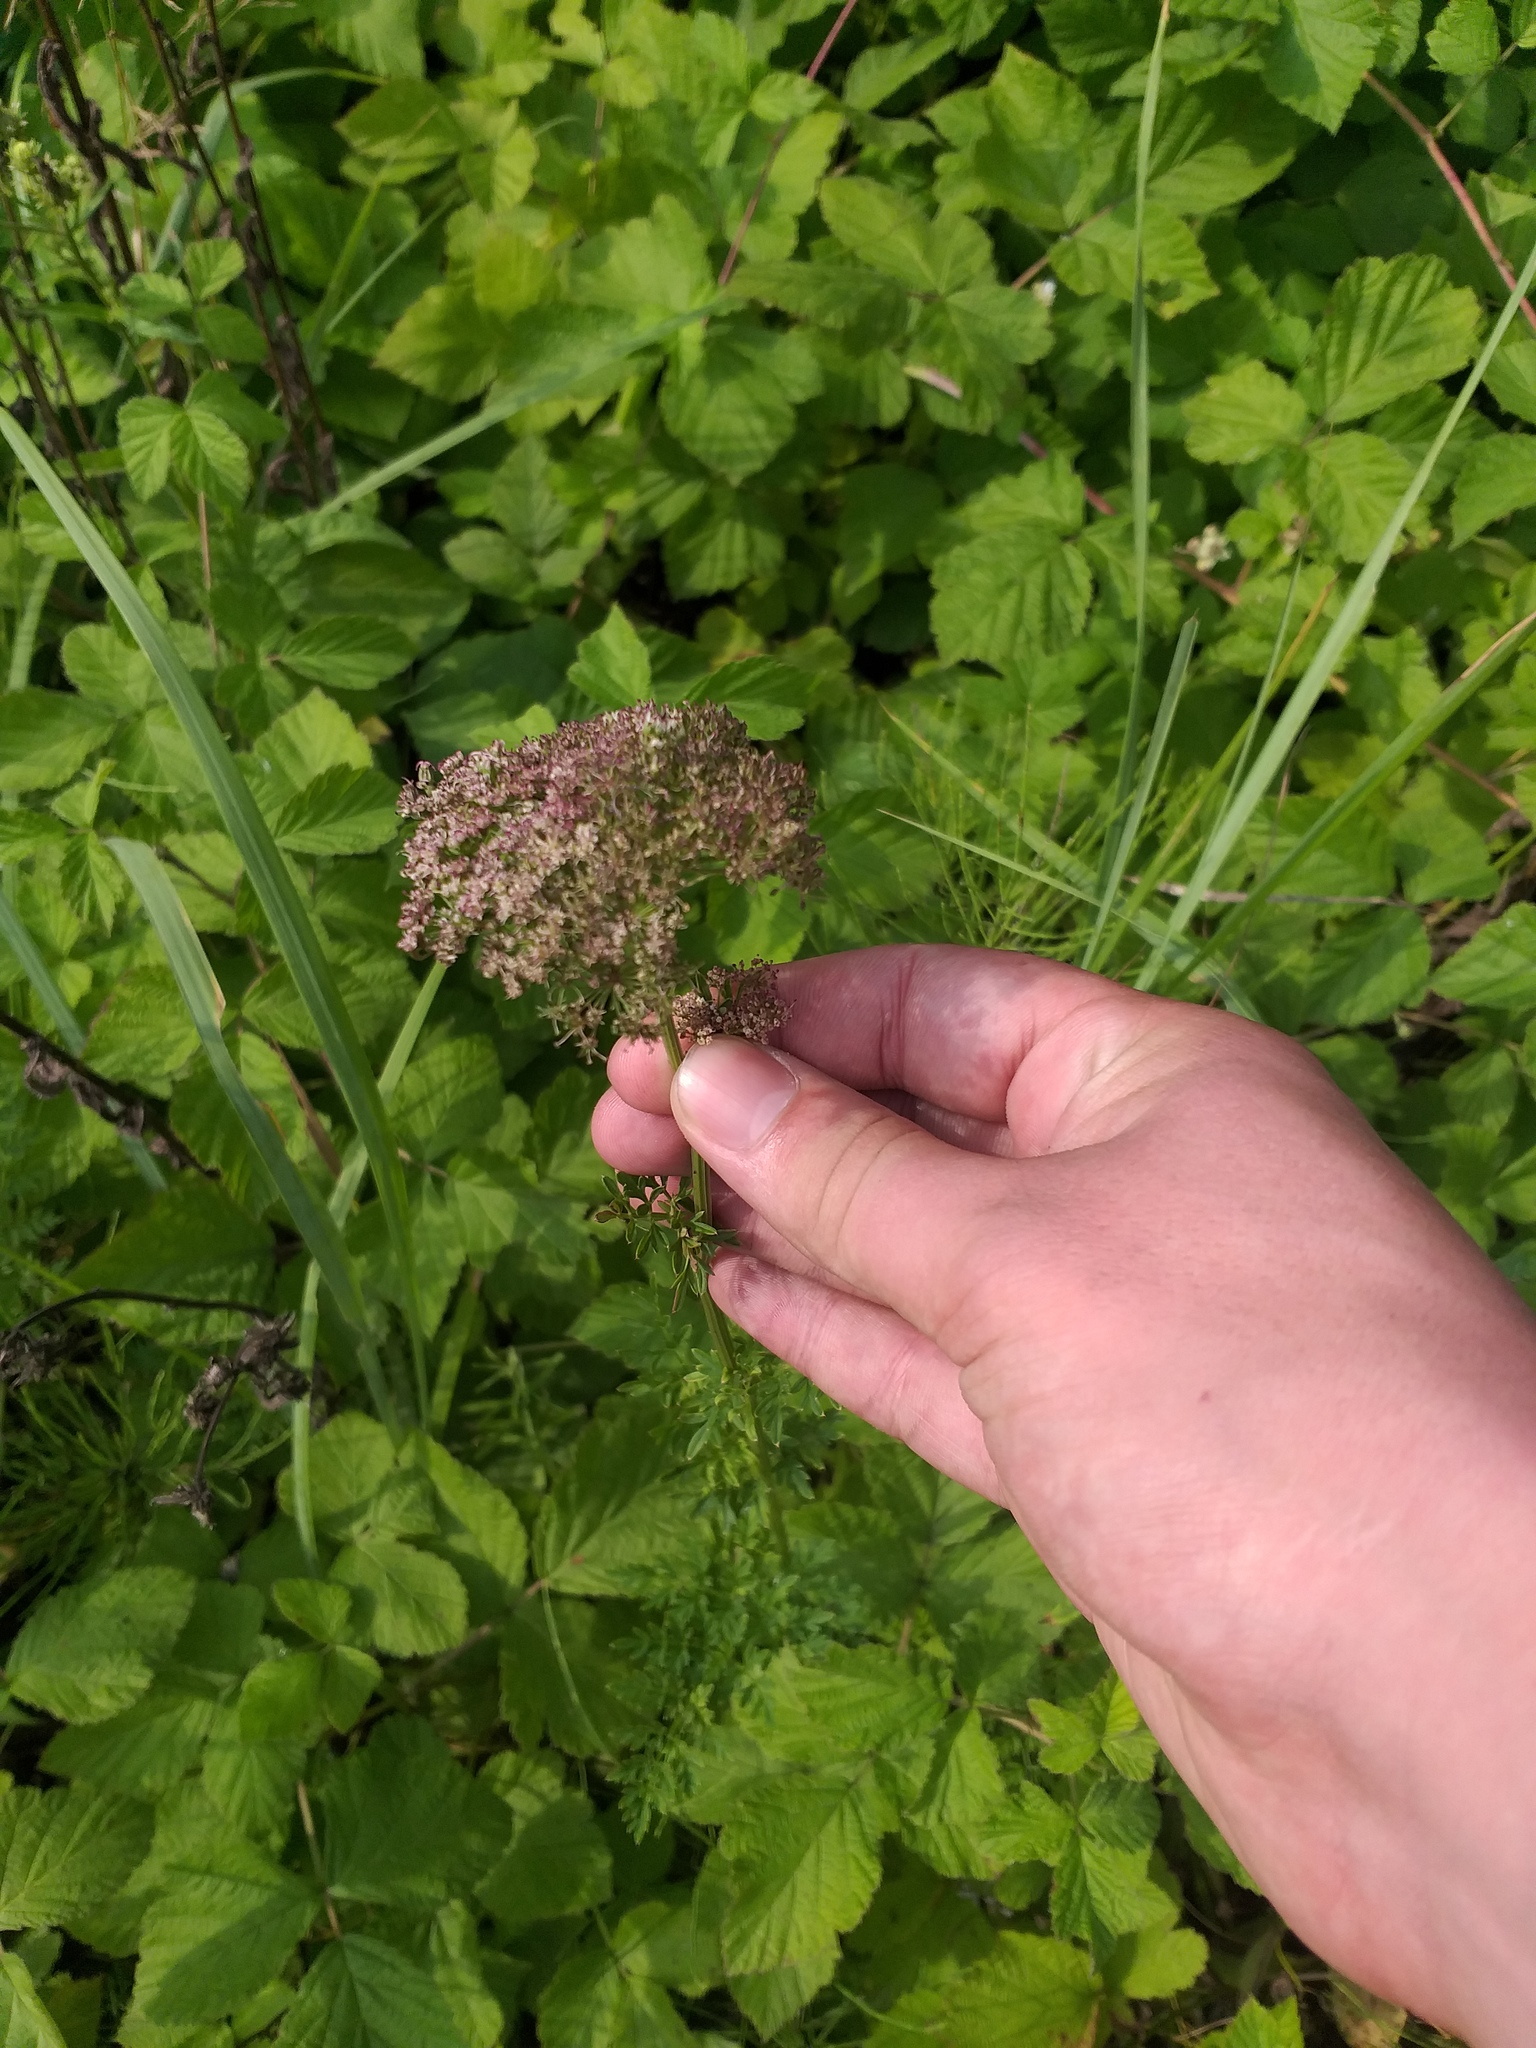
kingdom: Plantae
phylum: Tracheophyta
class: Magnoliopsida
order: Apiales
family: Apiaceae
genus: Selinum
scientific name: Selinum carvifolia
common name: Cambridge milk-parsley
